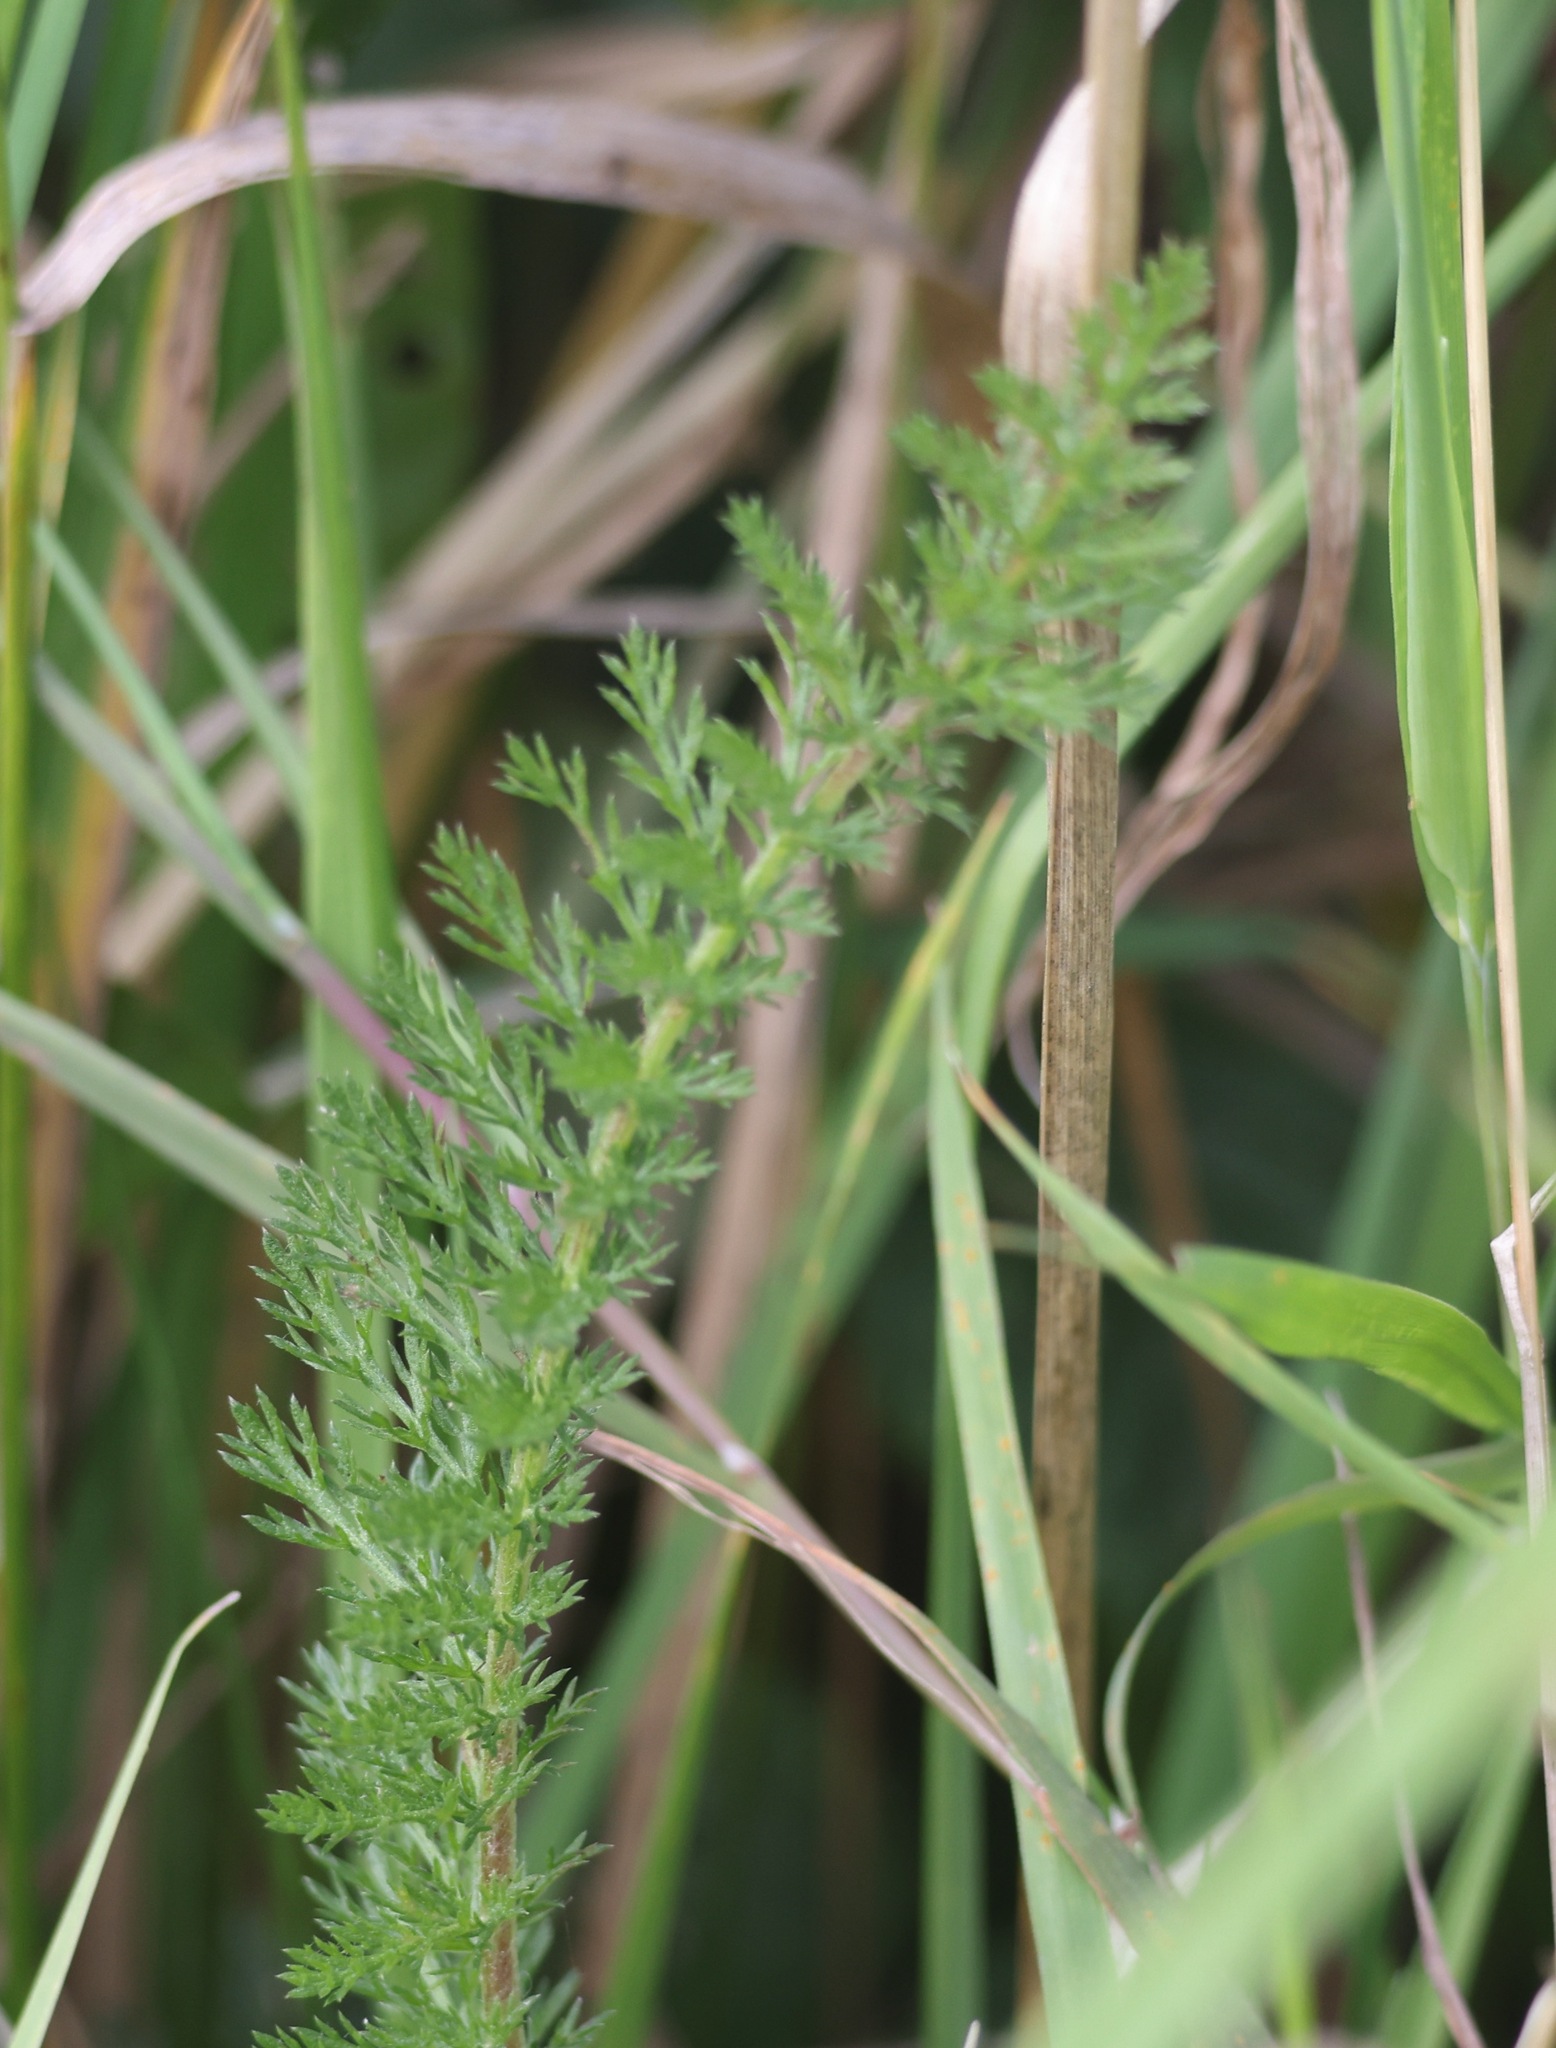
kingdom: Plantae
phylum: Tracheophyta
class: Magnoliopsida
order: Asterales
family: Asteraceae
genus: Achillea
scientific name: Achillea millefolium
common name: Yarrow
